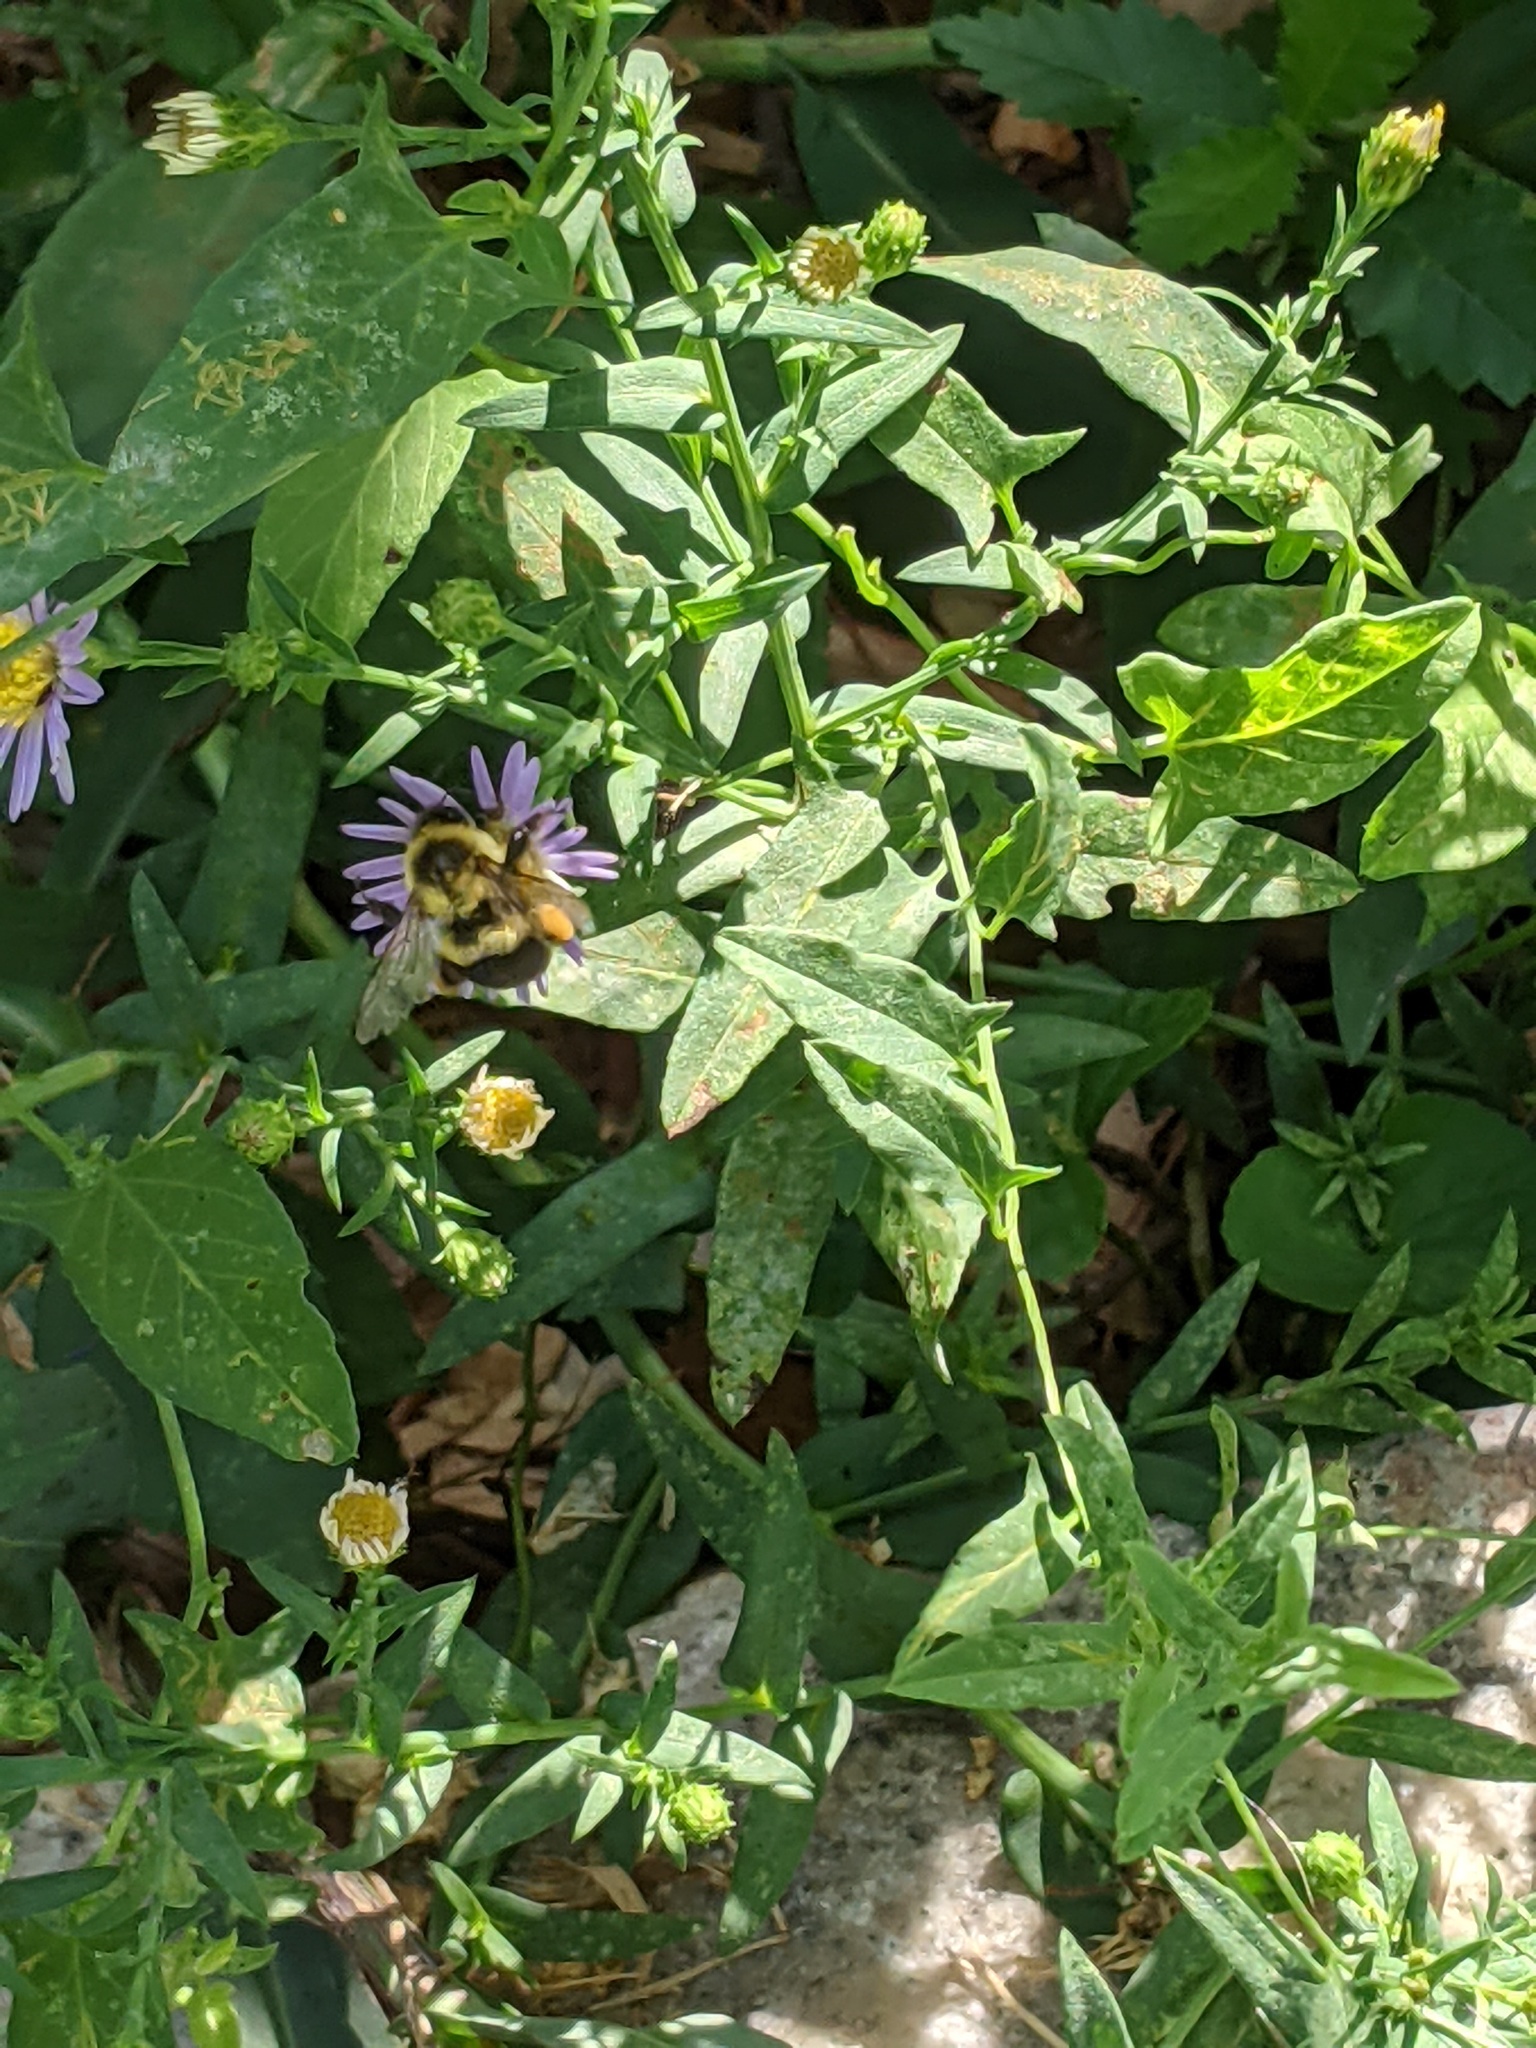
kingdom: Animalia
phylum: Arthropoda
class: Insecta
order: Hymenoptera
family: Apidae
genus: Bombus
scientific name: Bombus impatiens
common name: Common eastern bumble bee
